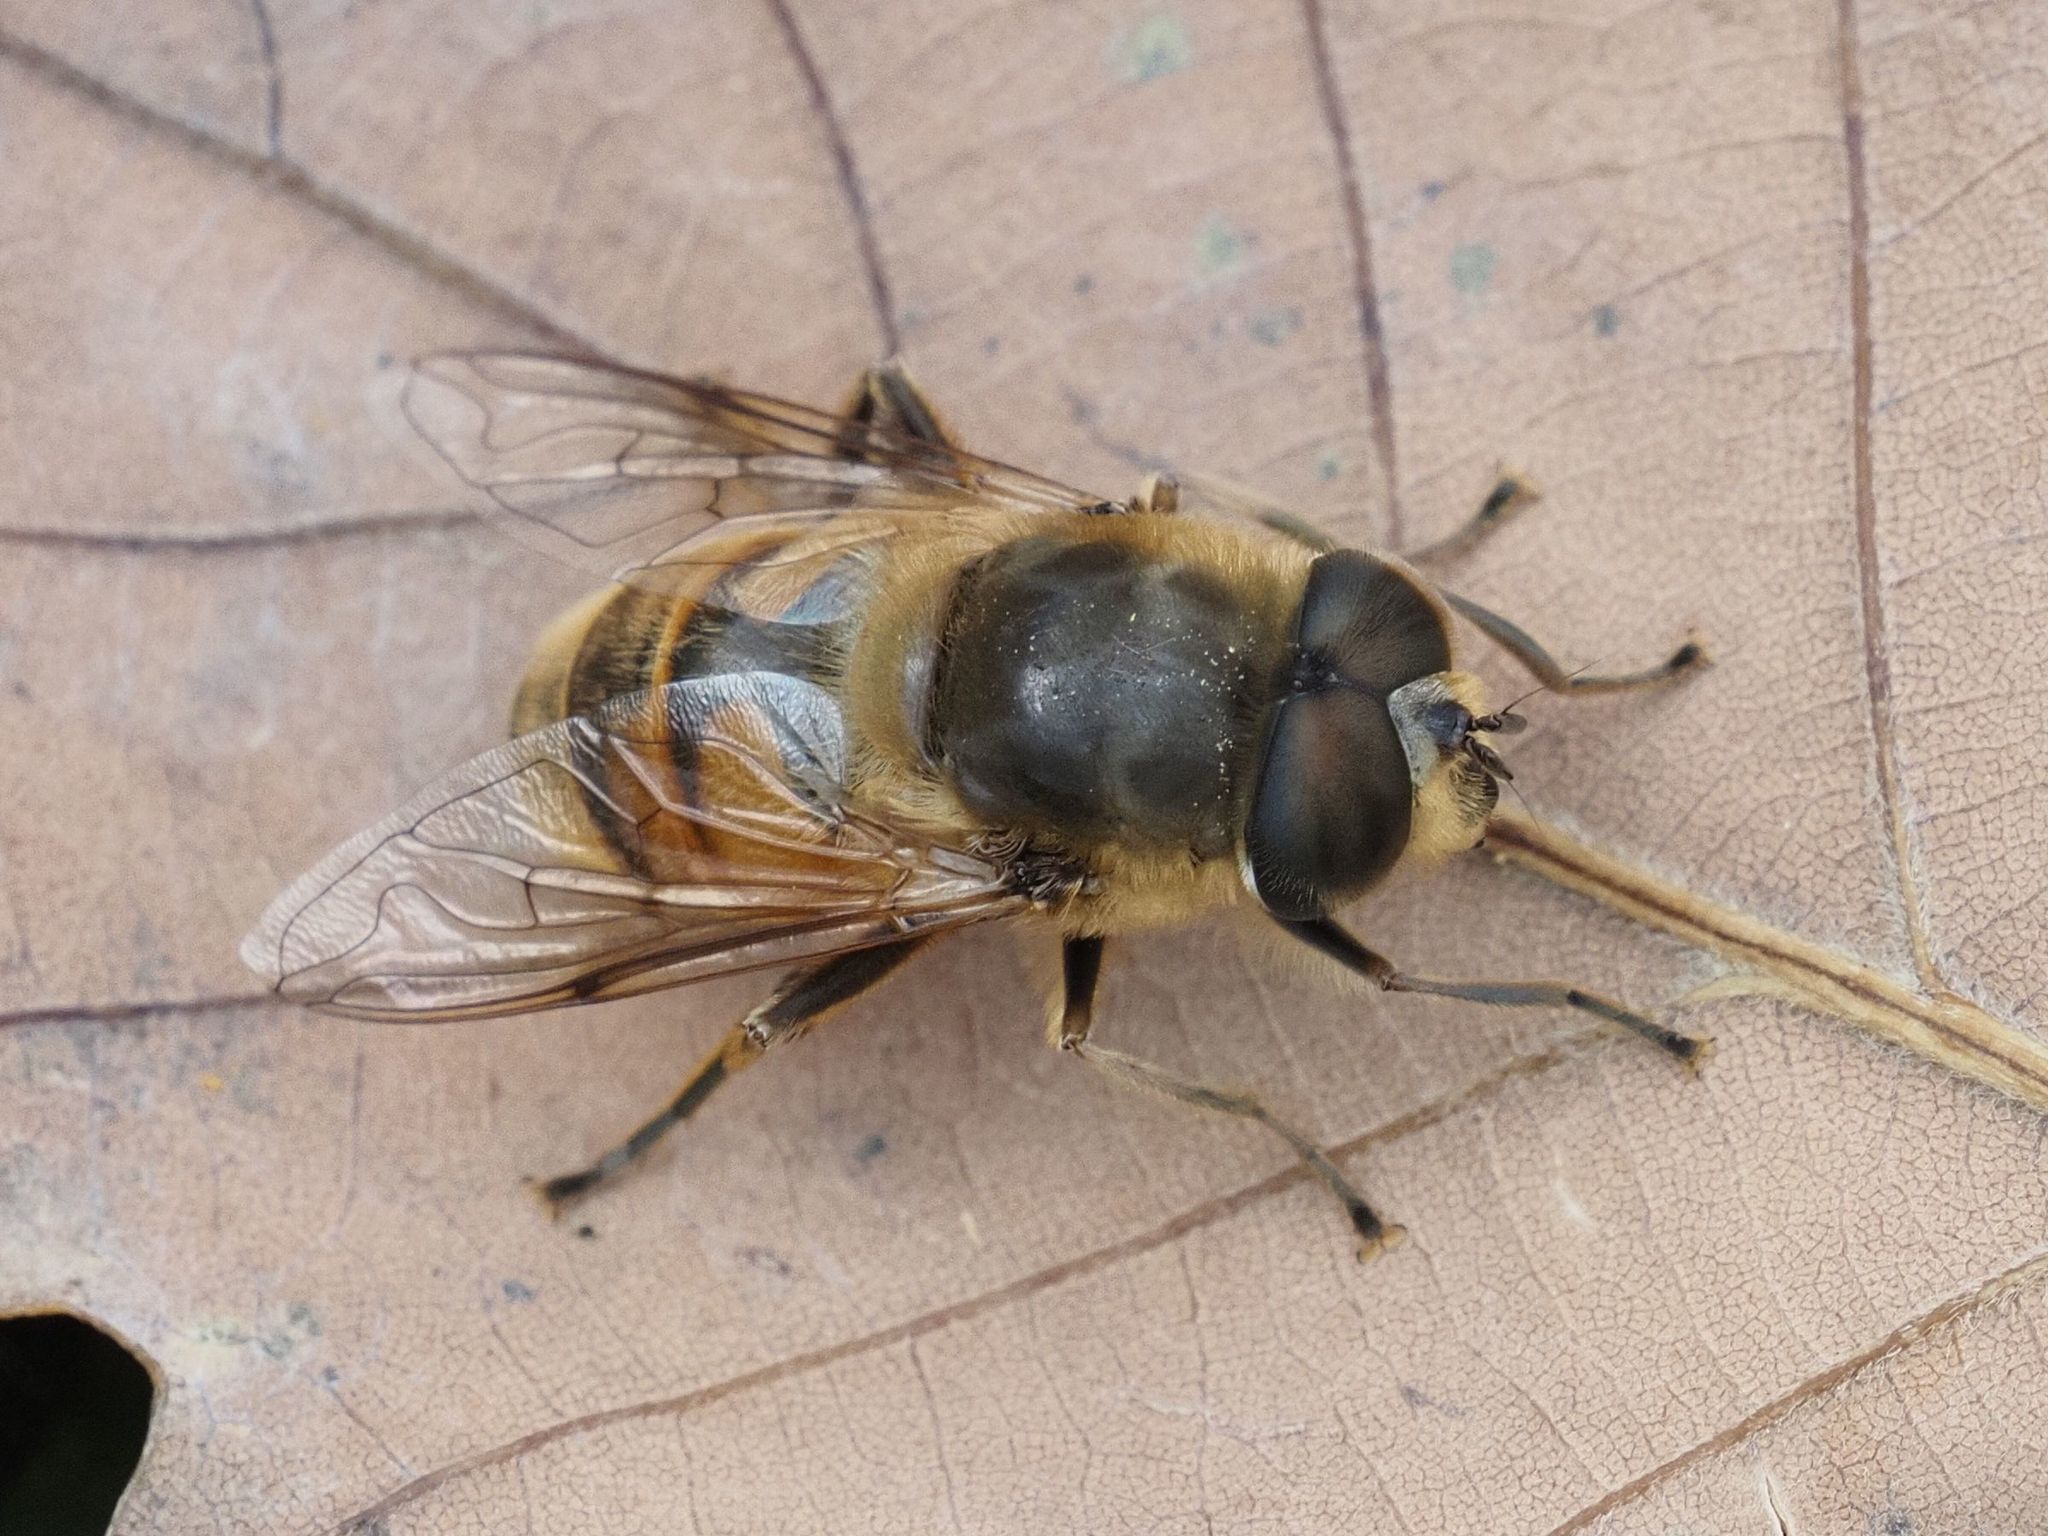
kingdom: Animalia
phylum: Arthropoda
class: Insecta
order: Diptera
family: Syrphidae
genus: Eristalis
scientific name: Eristalis tenax
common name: Drone fly
